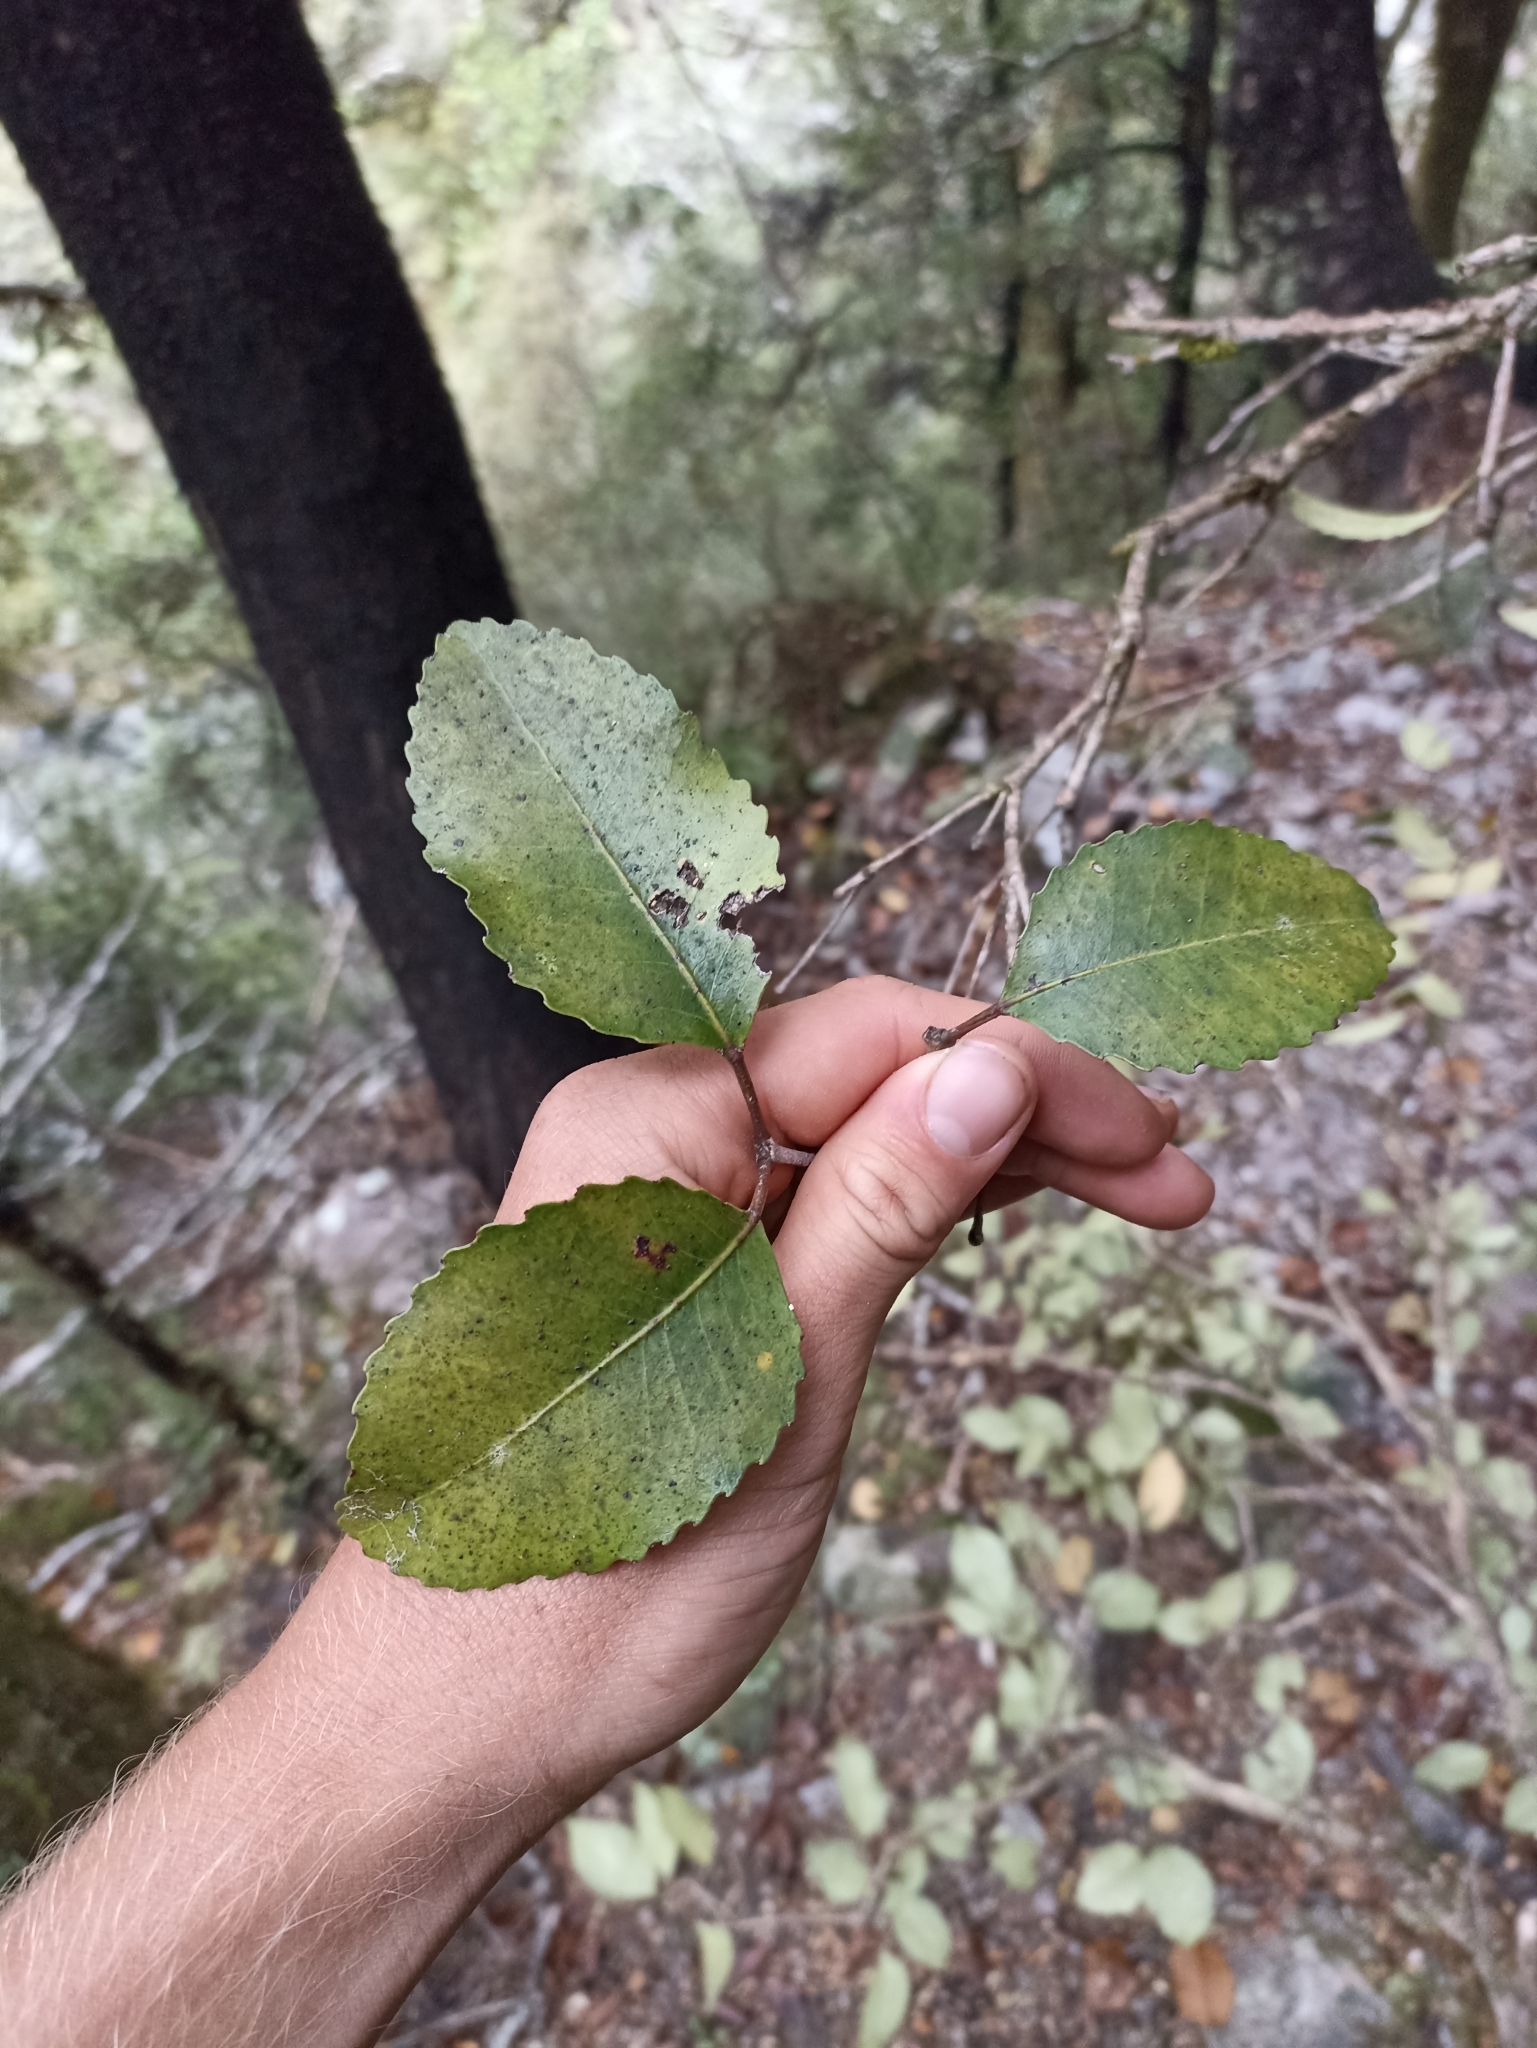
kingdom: Plantae
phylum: Tracheophyta
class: Magnoliopsida
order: Oxalidales
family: Cunoniaceae
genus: Pterophylla
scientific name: Pterophylla racemosa
